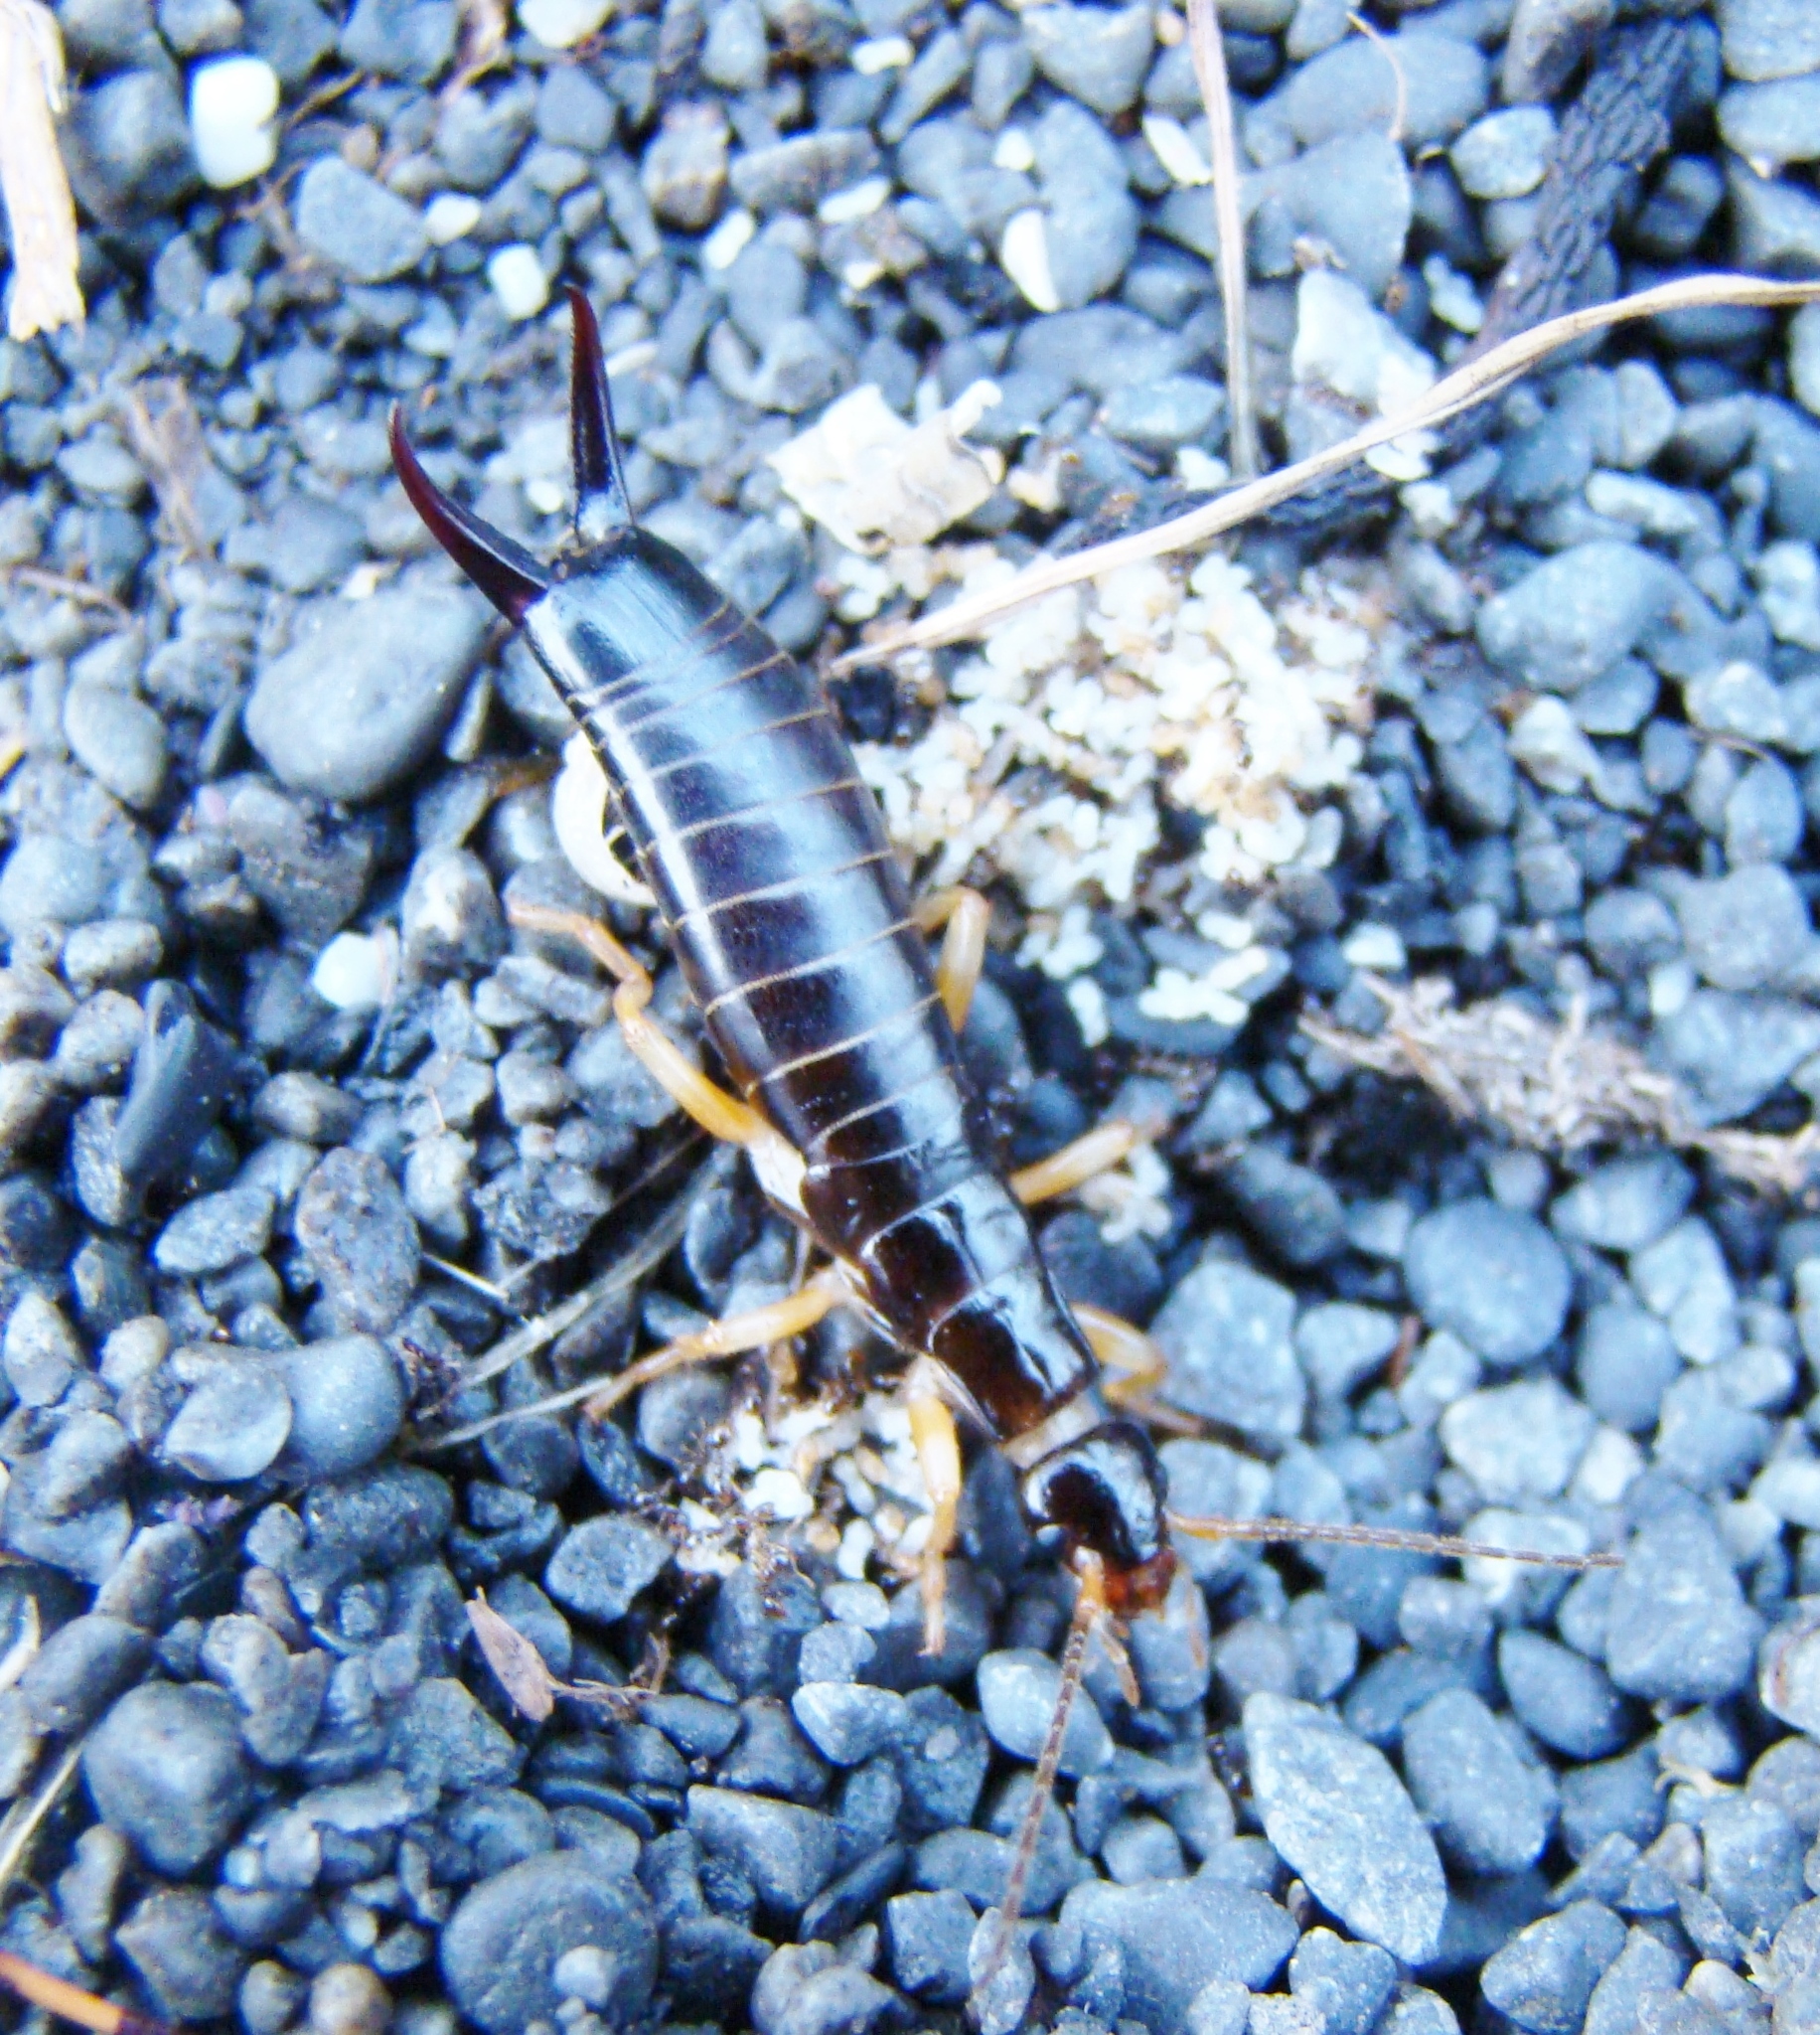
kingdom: Animalia
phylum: Arthropoda
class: Insecta
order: Dermaptera
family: Anisolabididae
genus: Anisolabis
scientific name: Anisolabis littorea
